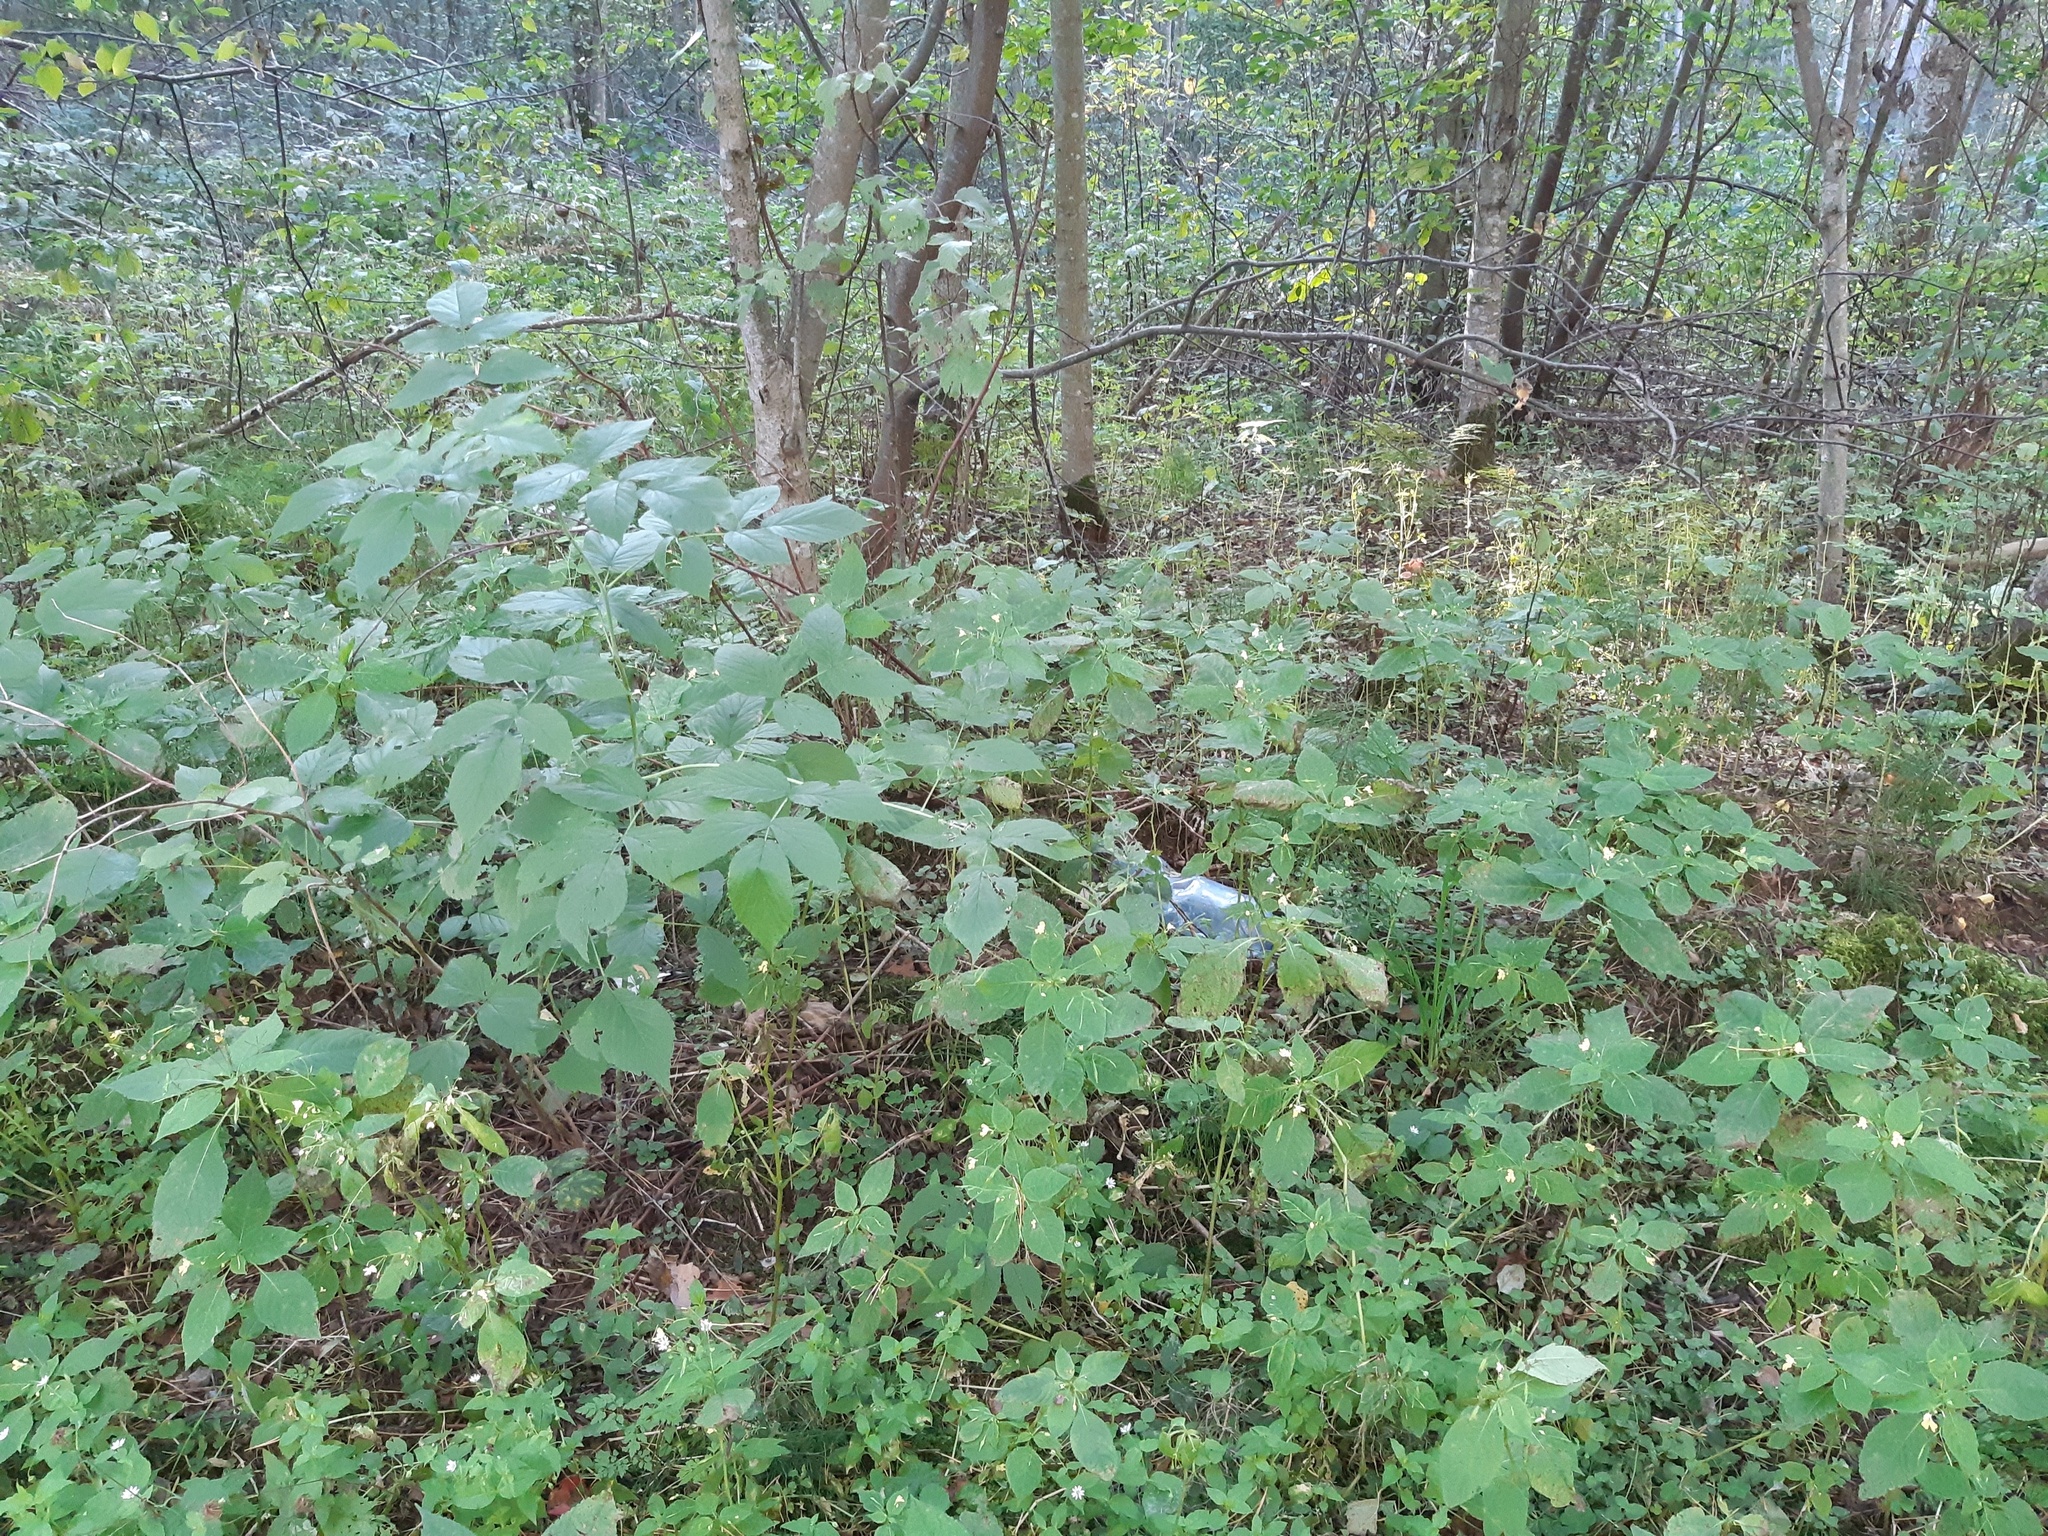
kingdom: Plantae
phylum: Tracheophyta
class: Magnoliopsida
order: Ericales
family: Balsaminaceae
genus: Impatiens
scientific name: Impatiens parviflora
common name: Small balsam
